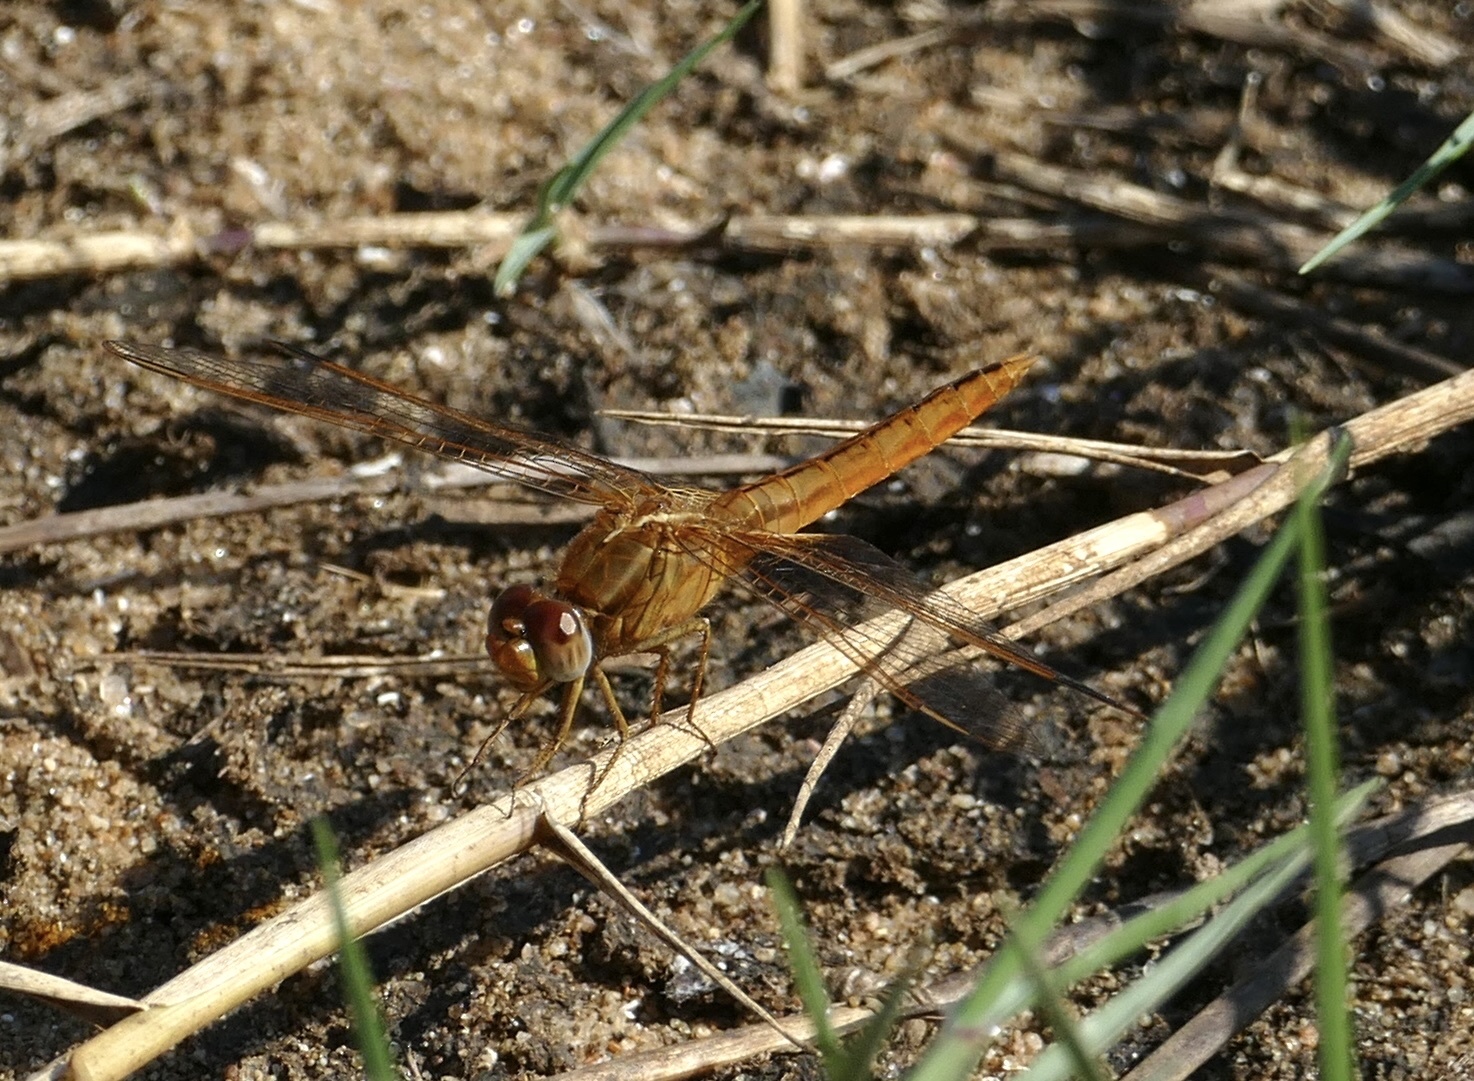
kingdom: Animalia
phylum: Arthropoda
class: Insecta
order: Odonata
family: Libellulidae
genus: Crocothemis
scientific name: Crocothemis erythraea
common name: Scarlet dragonfly
